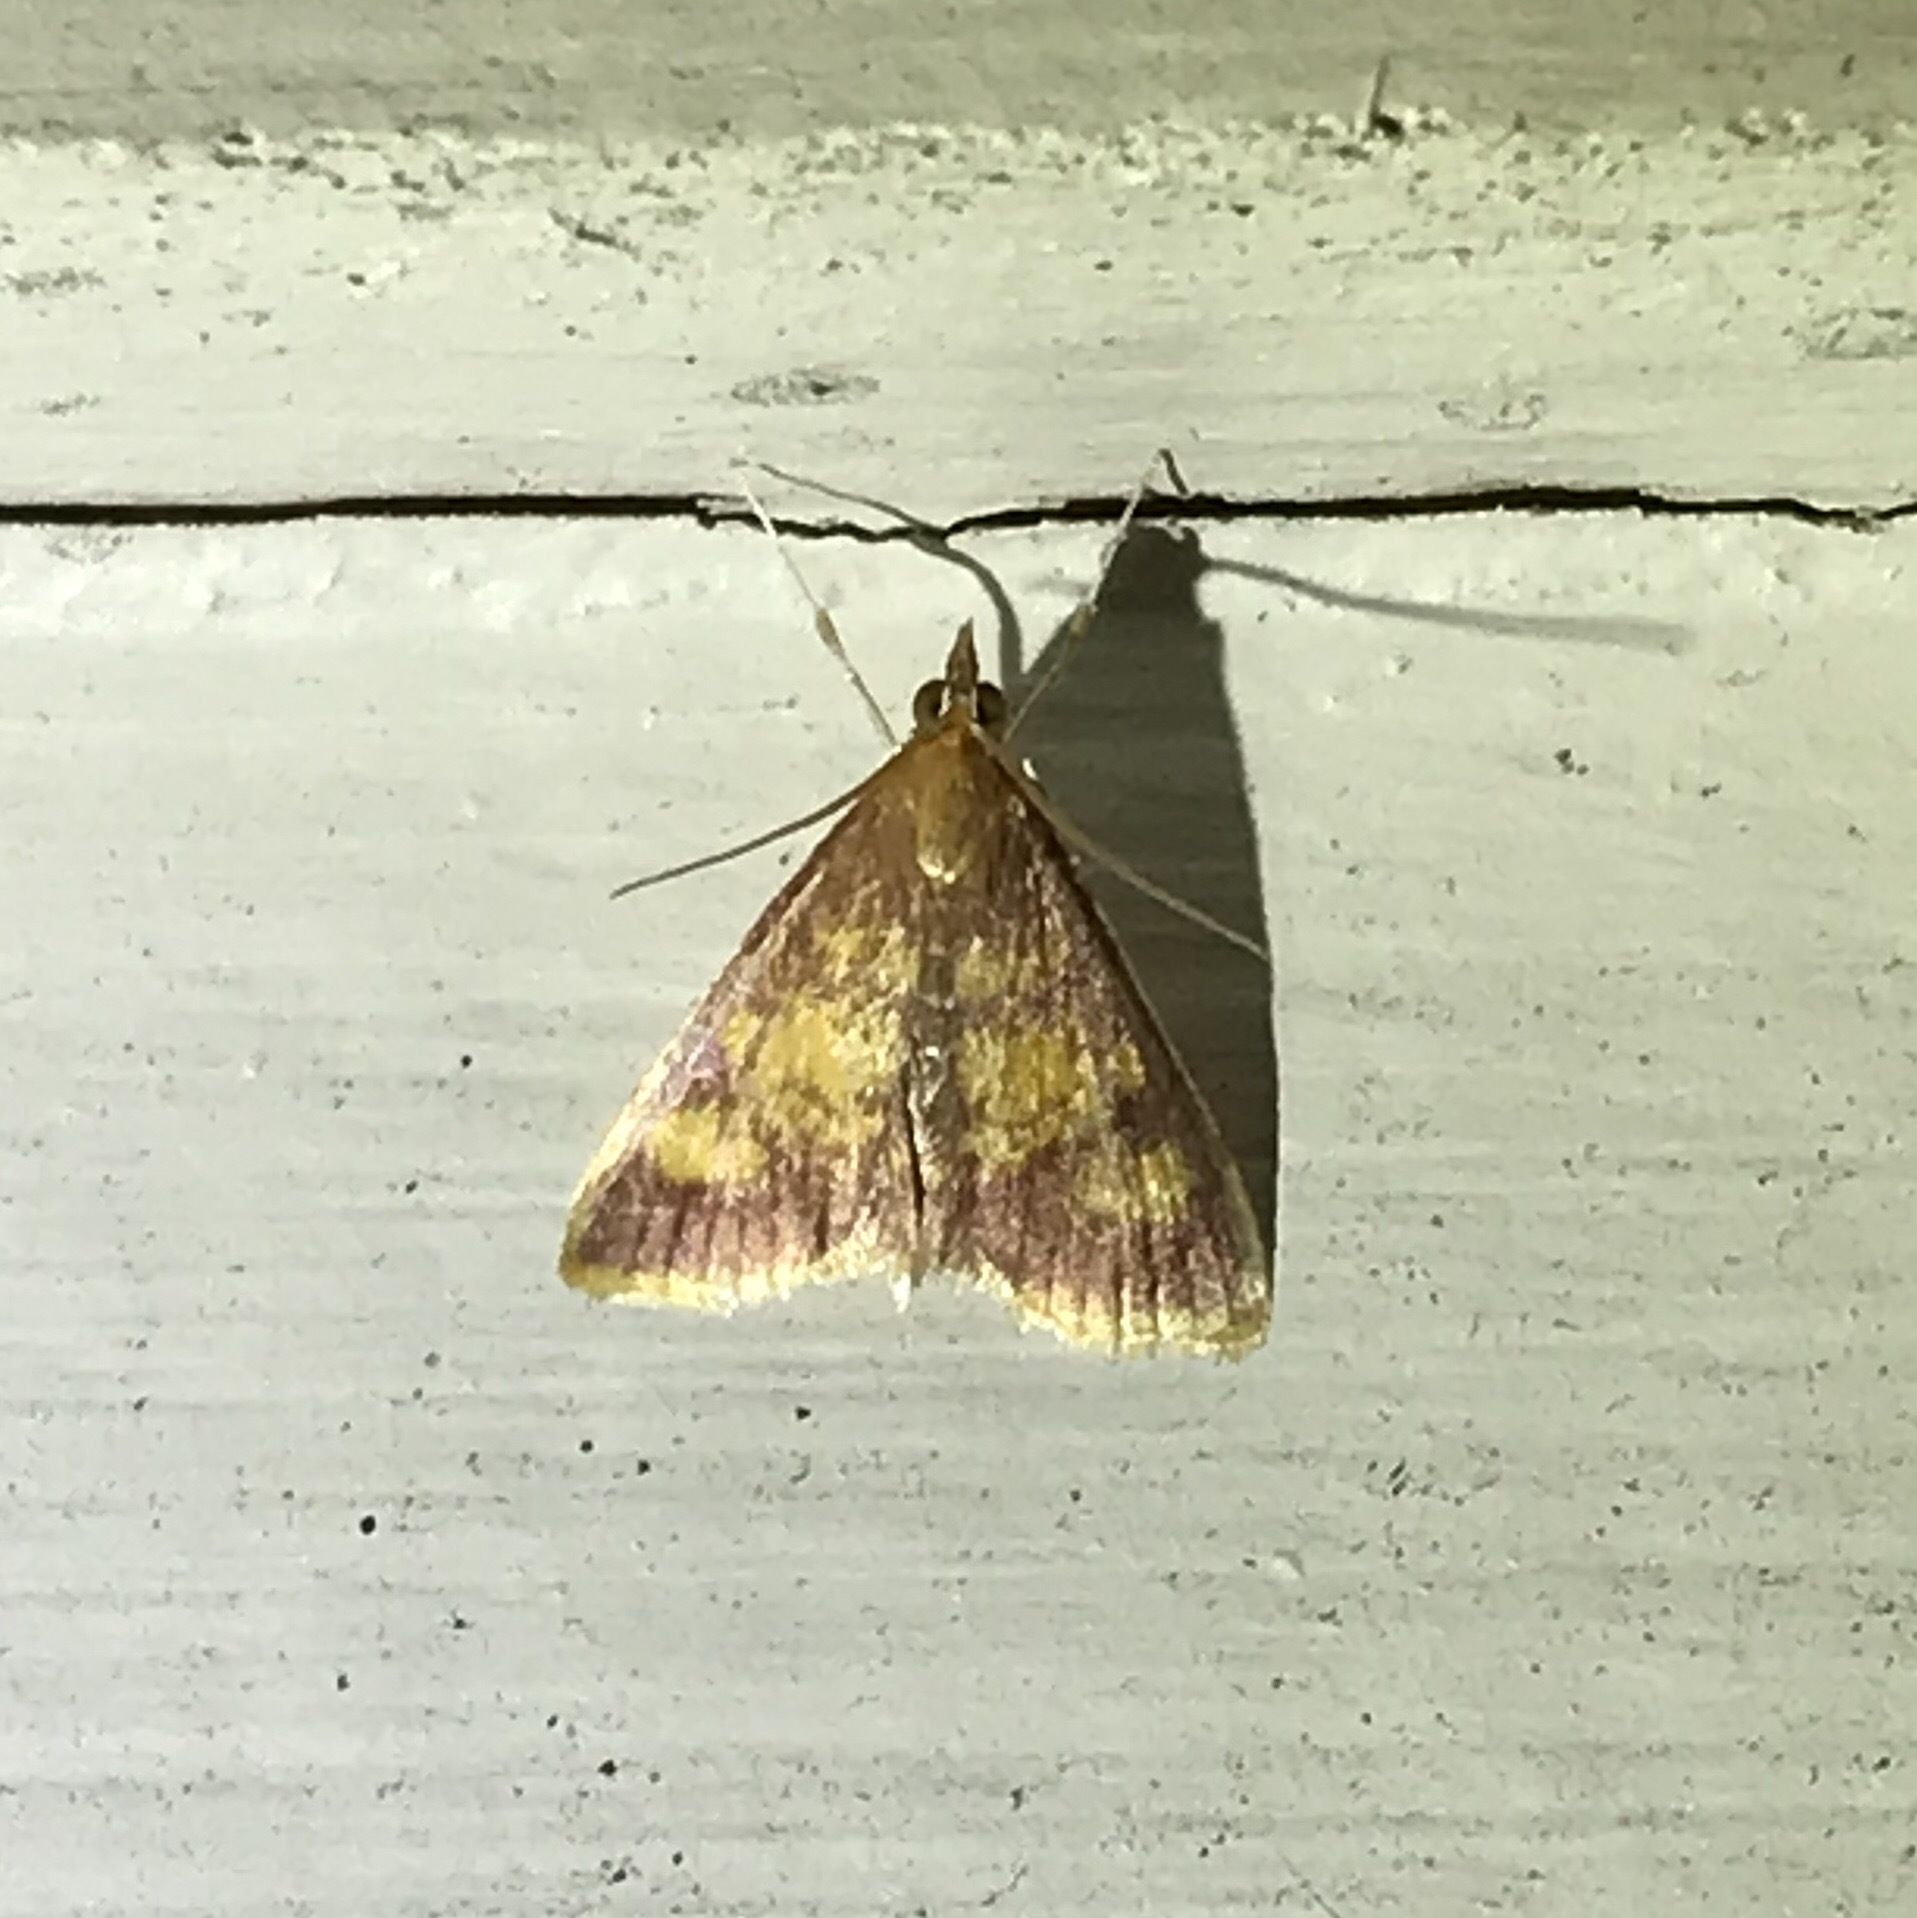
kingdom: Animalia
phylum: Arthropoda
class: Insecta
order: Lepidoptera
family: Crambidae
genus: Pyrausta
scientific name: Pyrausta acrionalis
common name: Mint-loving pyrausta moth
